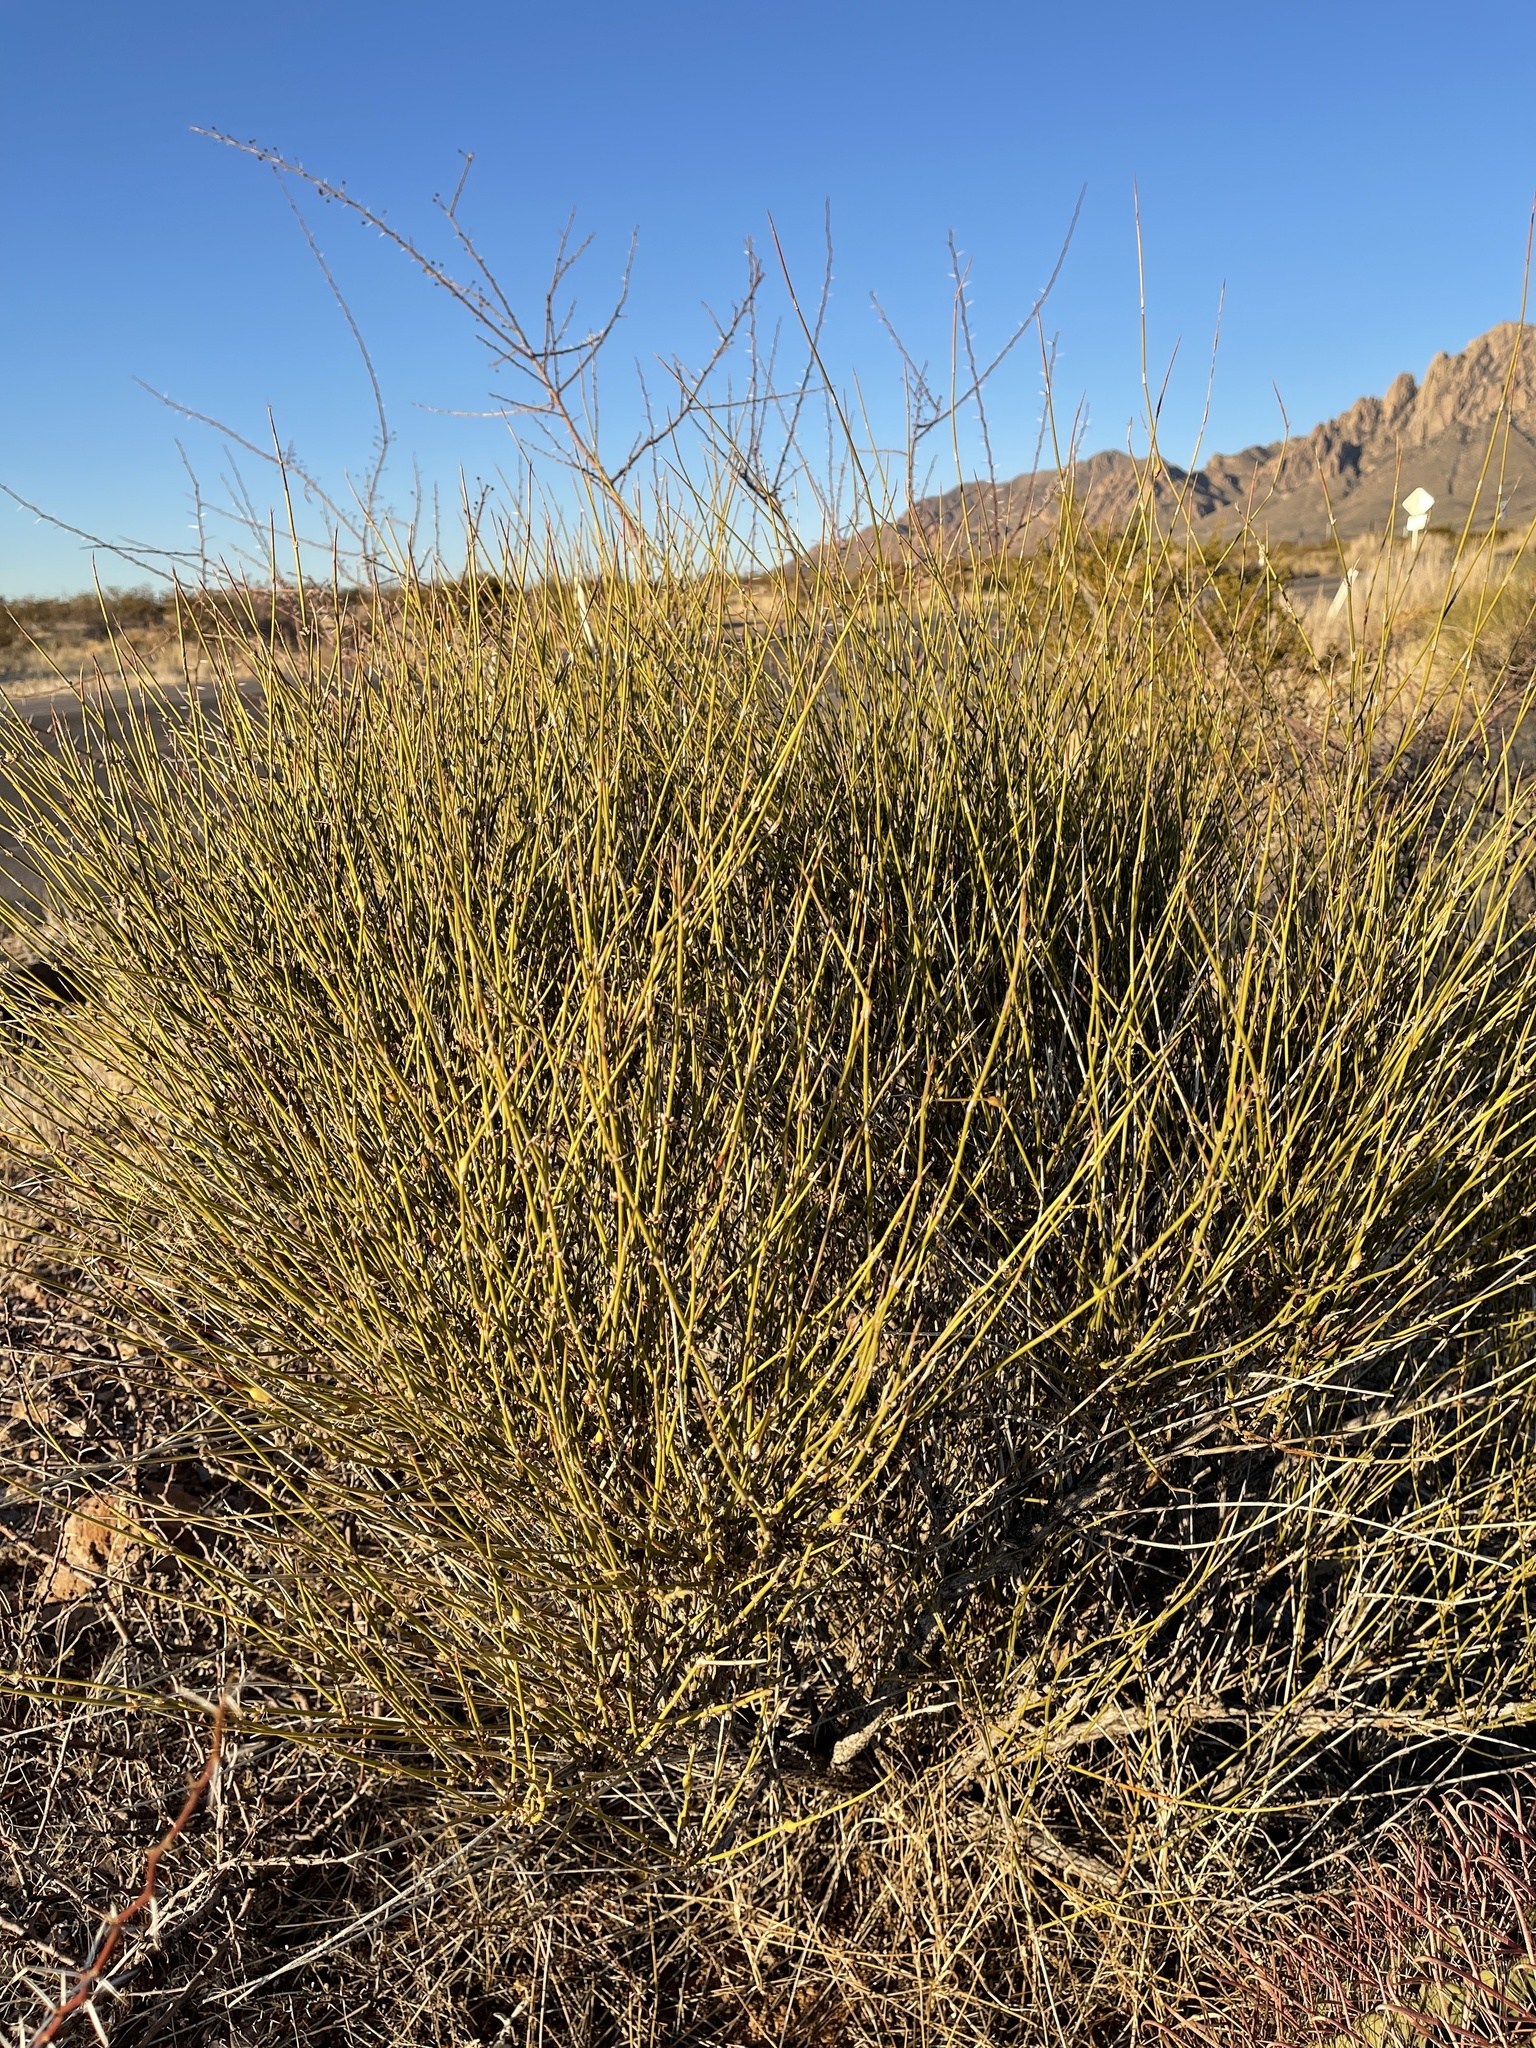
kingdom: Plantae
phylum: Tracheophyta
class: Gnetopsida
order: Ephedrales
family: Ephedraceae
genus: Ephedra
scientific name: Ephedra trifurca
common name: Mexican-tea
